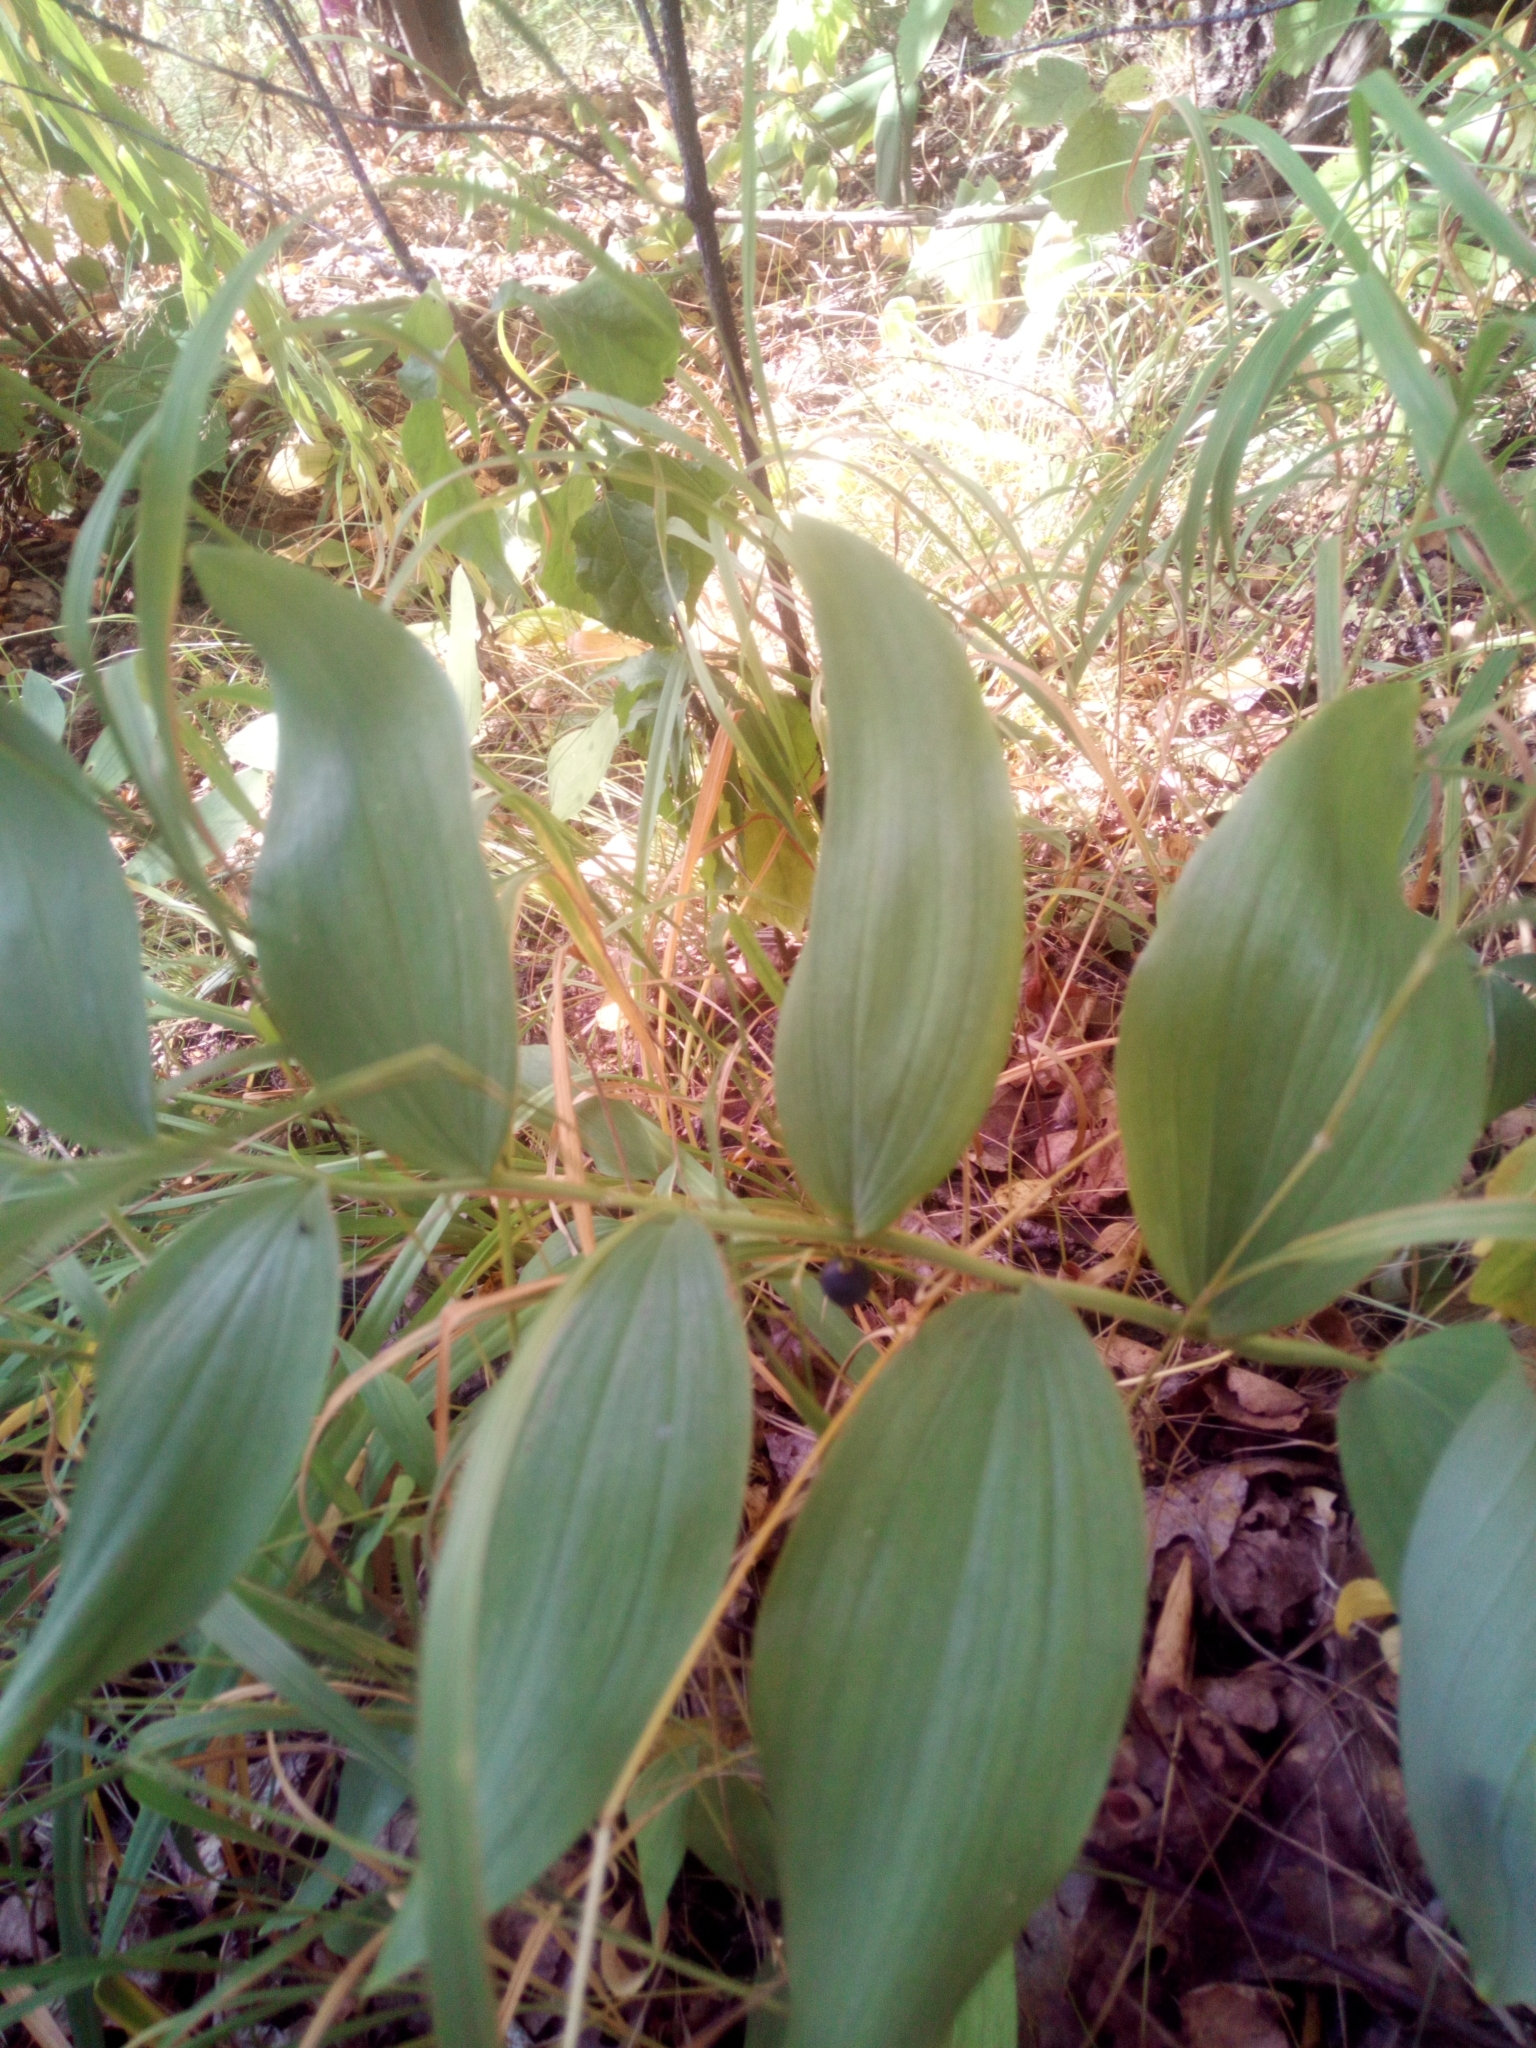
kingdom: Plantae
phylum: Tracheophyta
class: Liliopsida
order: Asparagales
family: Asparagaceae
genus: Polygonatum
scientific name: Polygonatum multiflorum
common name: Solomon's-seal
